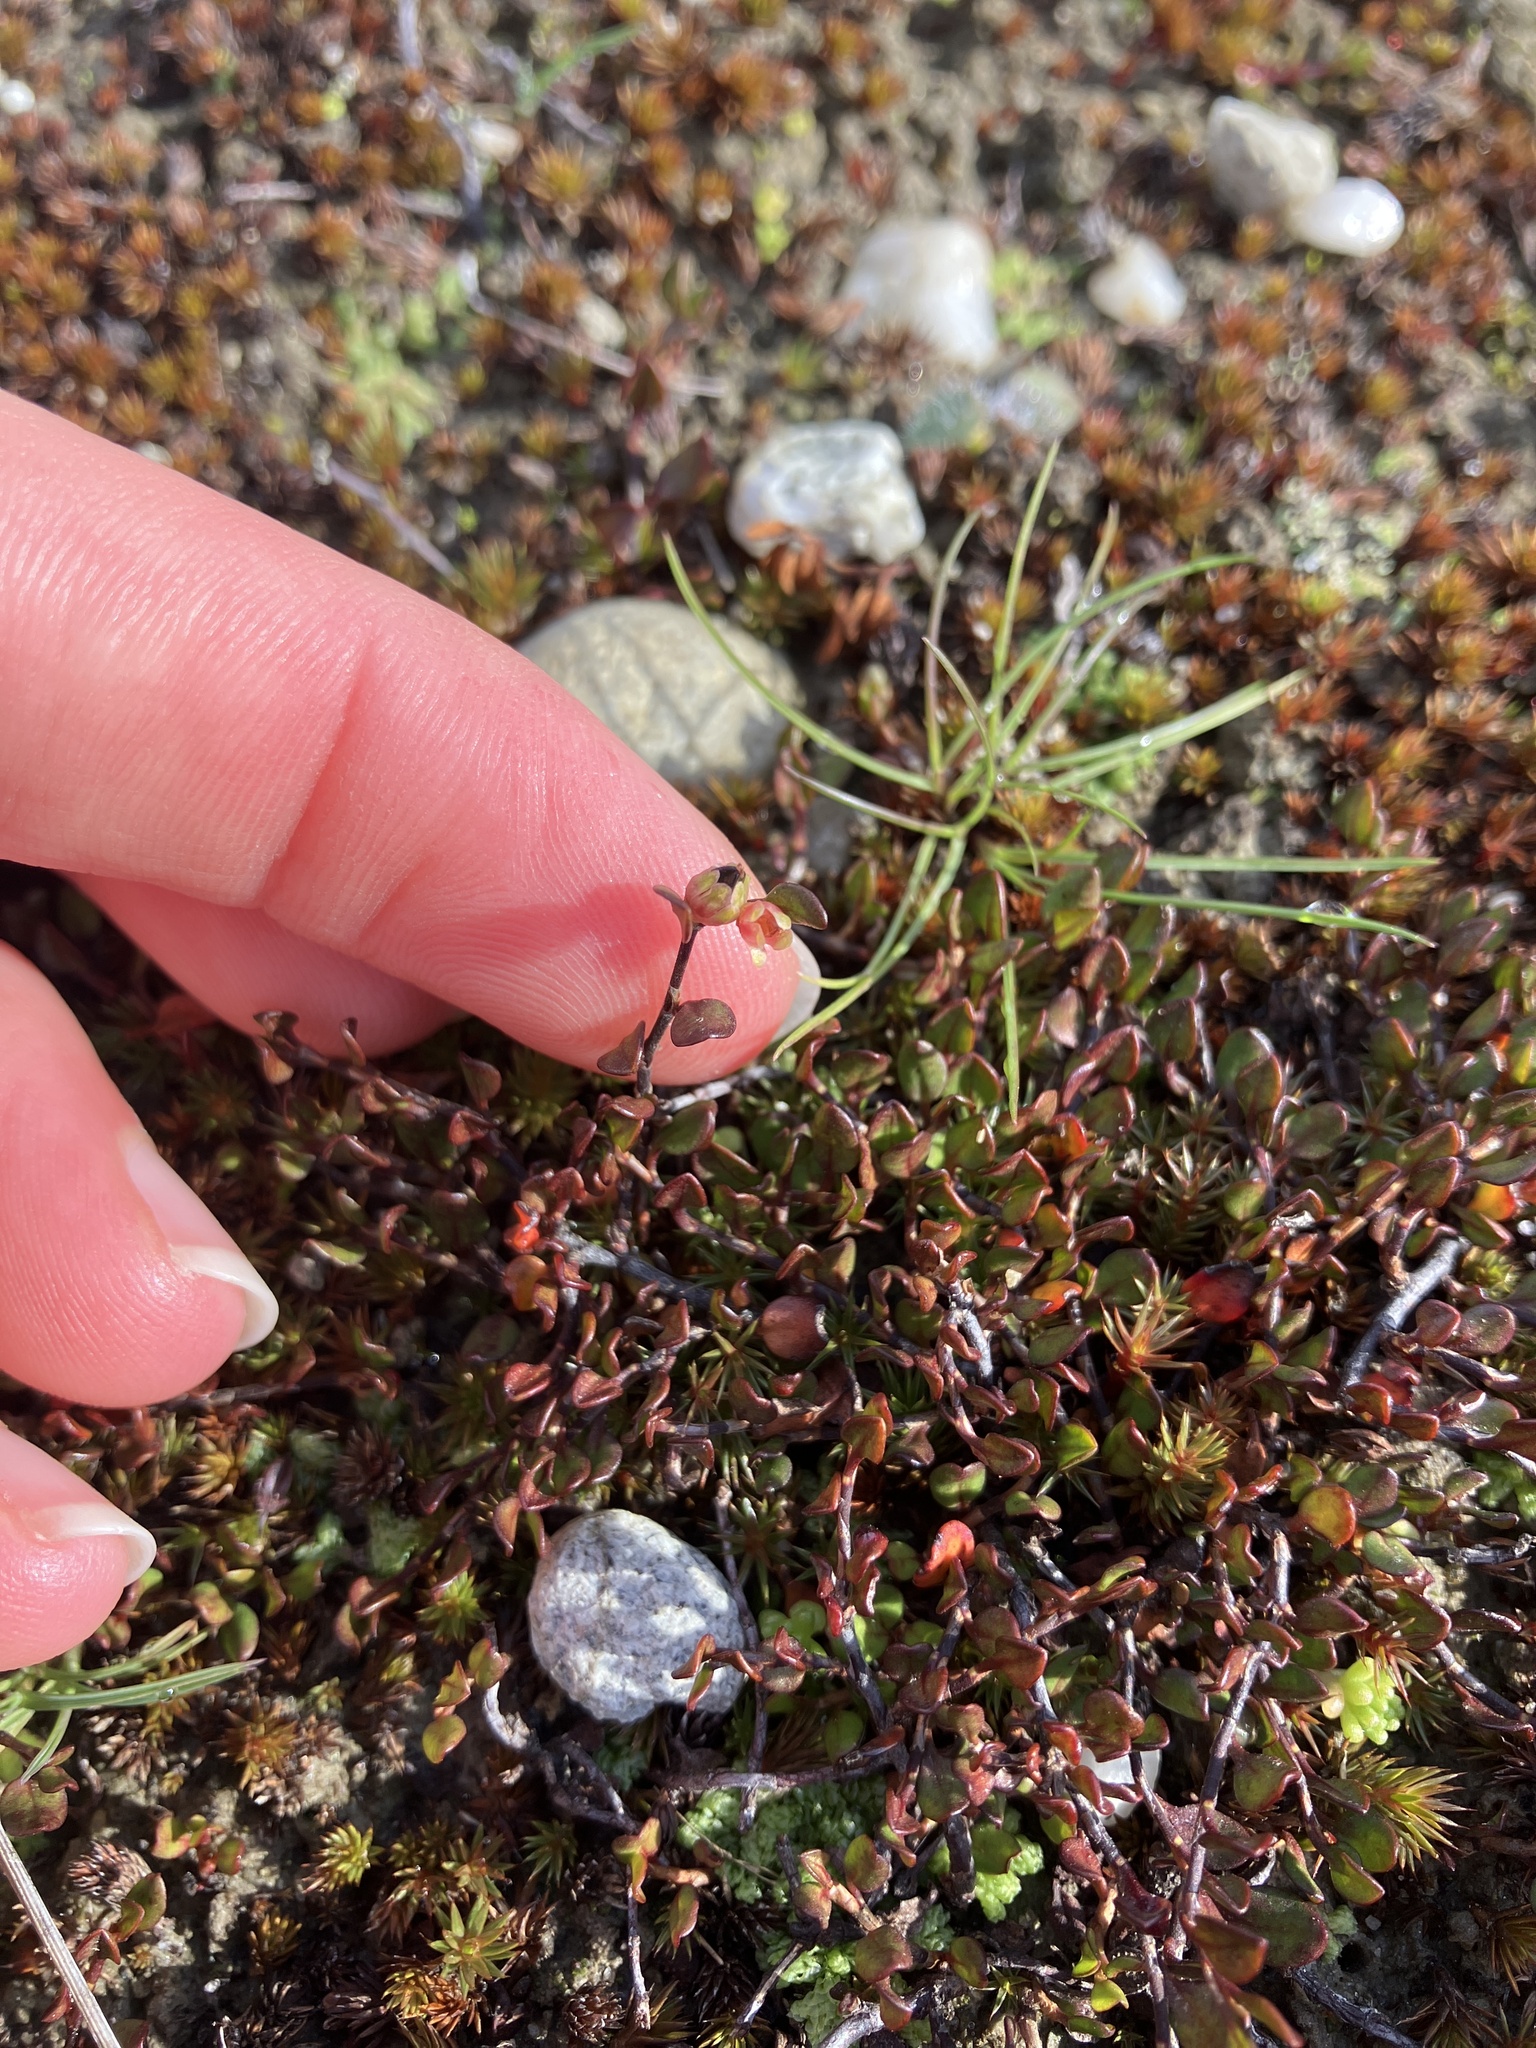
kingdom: Plantae
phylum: Tracheophyta
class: Magnoliopsida
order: Caryophyllales
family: Polygonaceae
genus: Muehlenbeckia
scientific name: Muehlenbeckia axillaris
